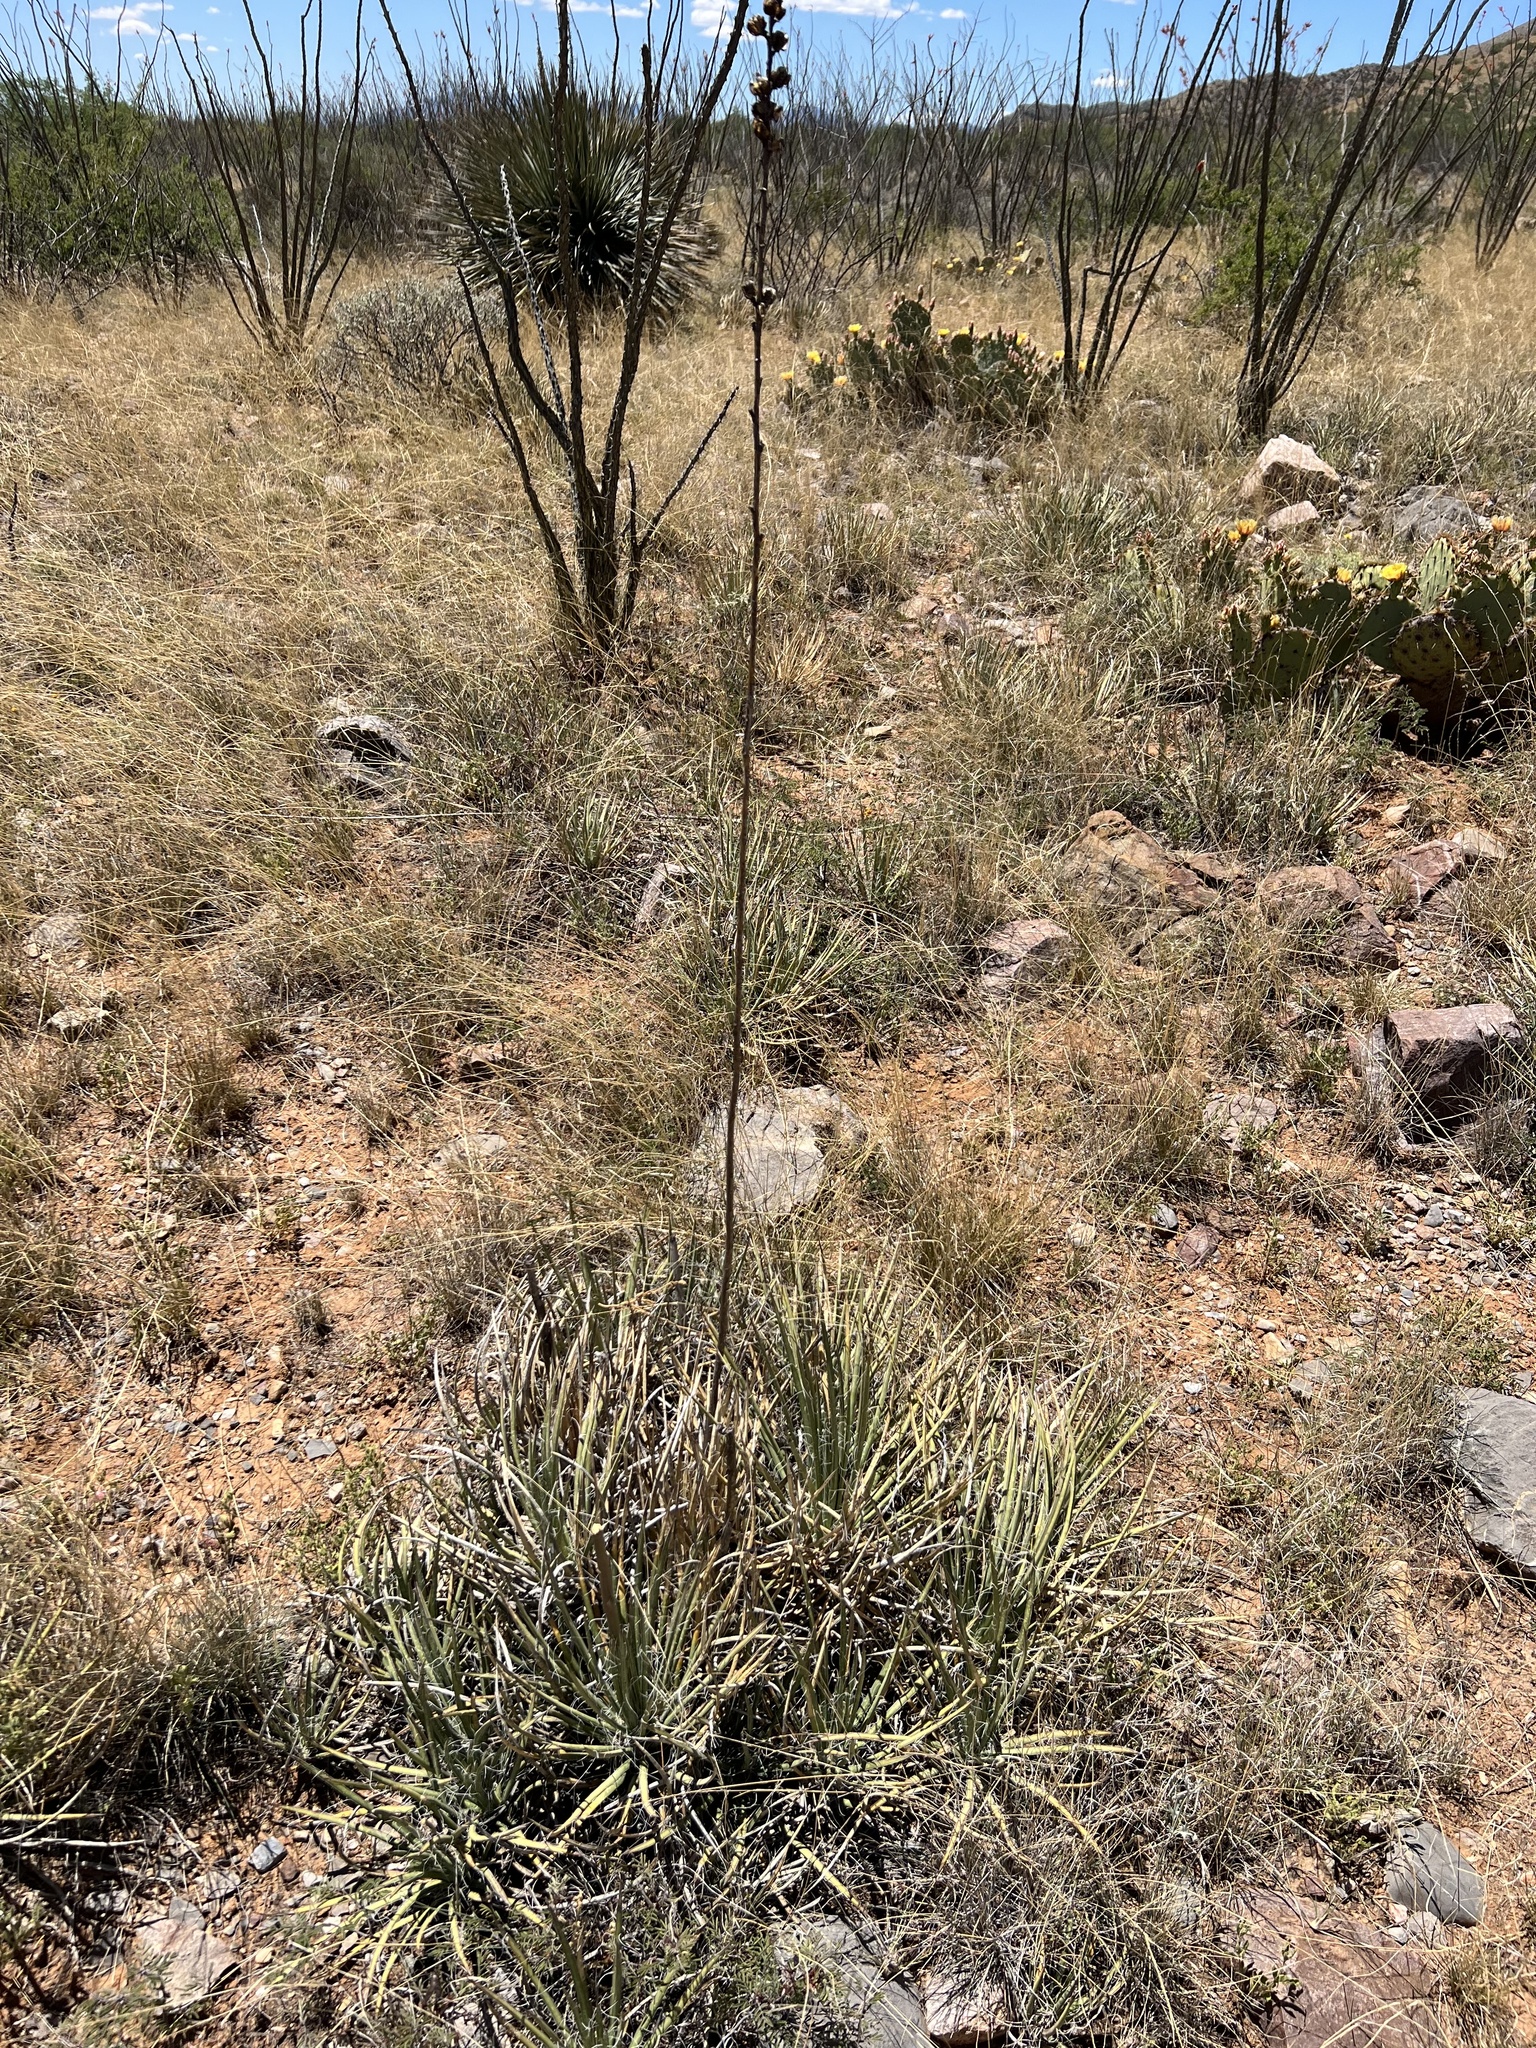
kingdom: Plantae
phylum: Tracheophyta
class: Liliopsida
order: Asparagales
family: Asparagaceae
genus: Agave
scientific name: Agave schottii
